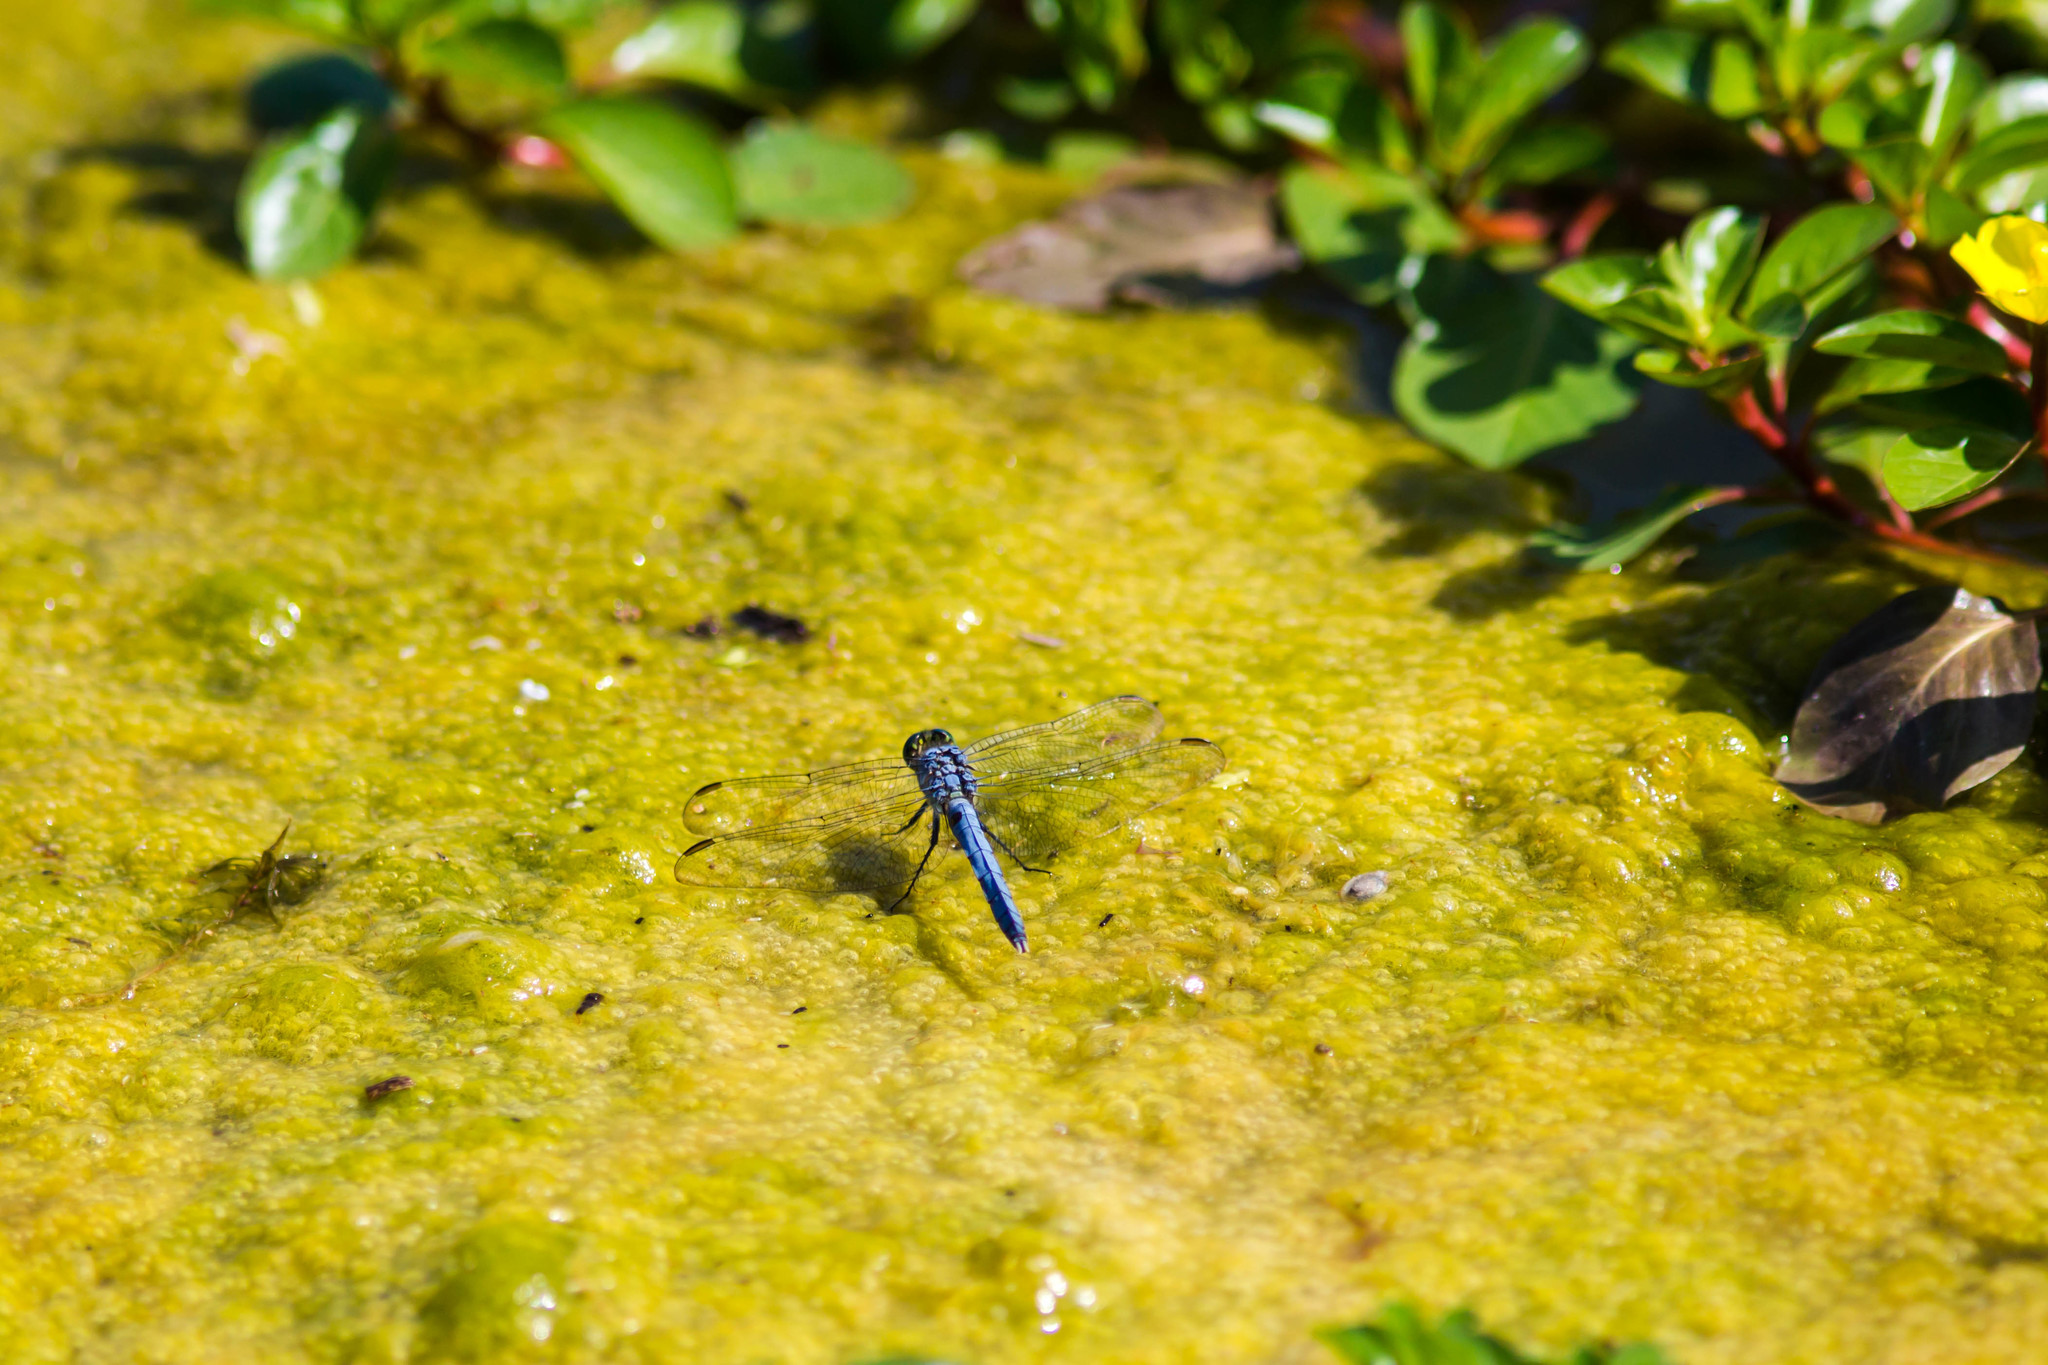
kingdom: Animalia
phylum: Arthropoda
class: Insecta
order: Odonata
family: Libellulidae
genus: Erythemis
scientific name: Erythemis simplicicollis
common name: Eastern pondhawk
